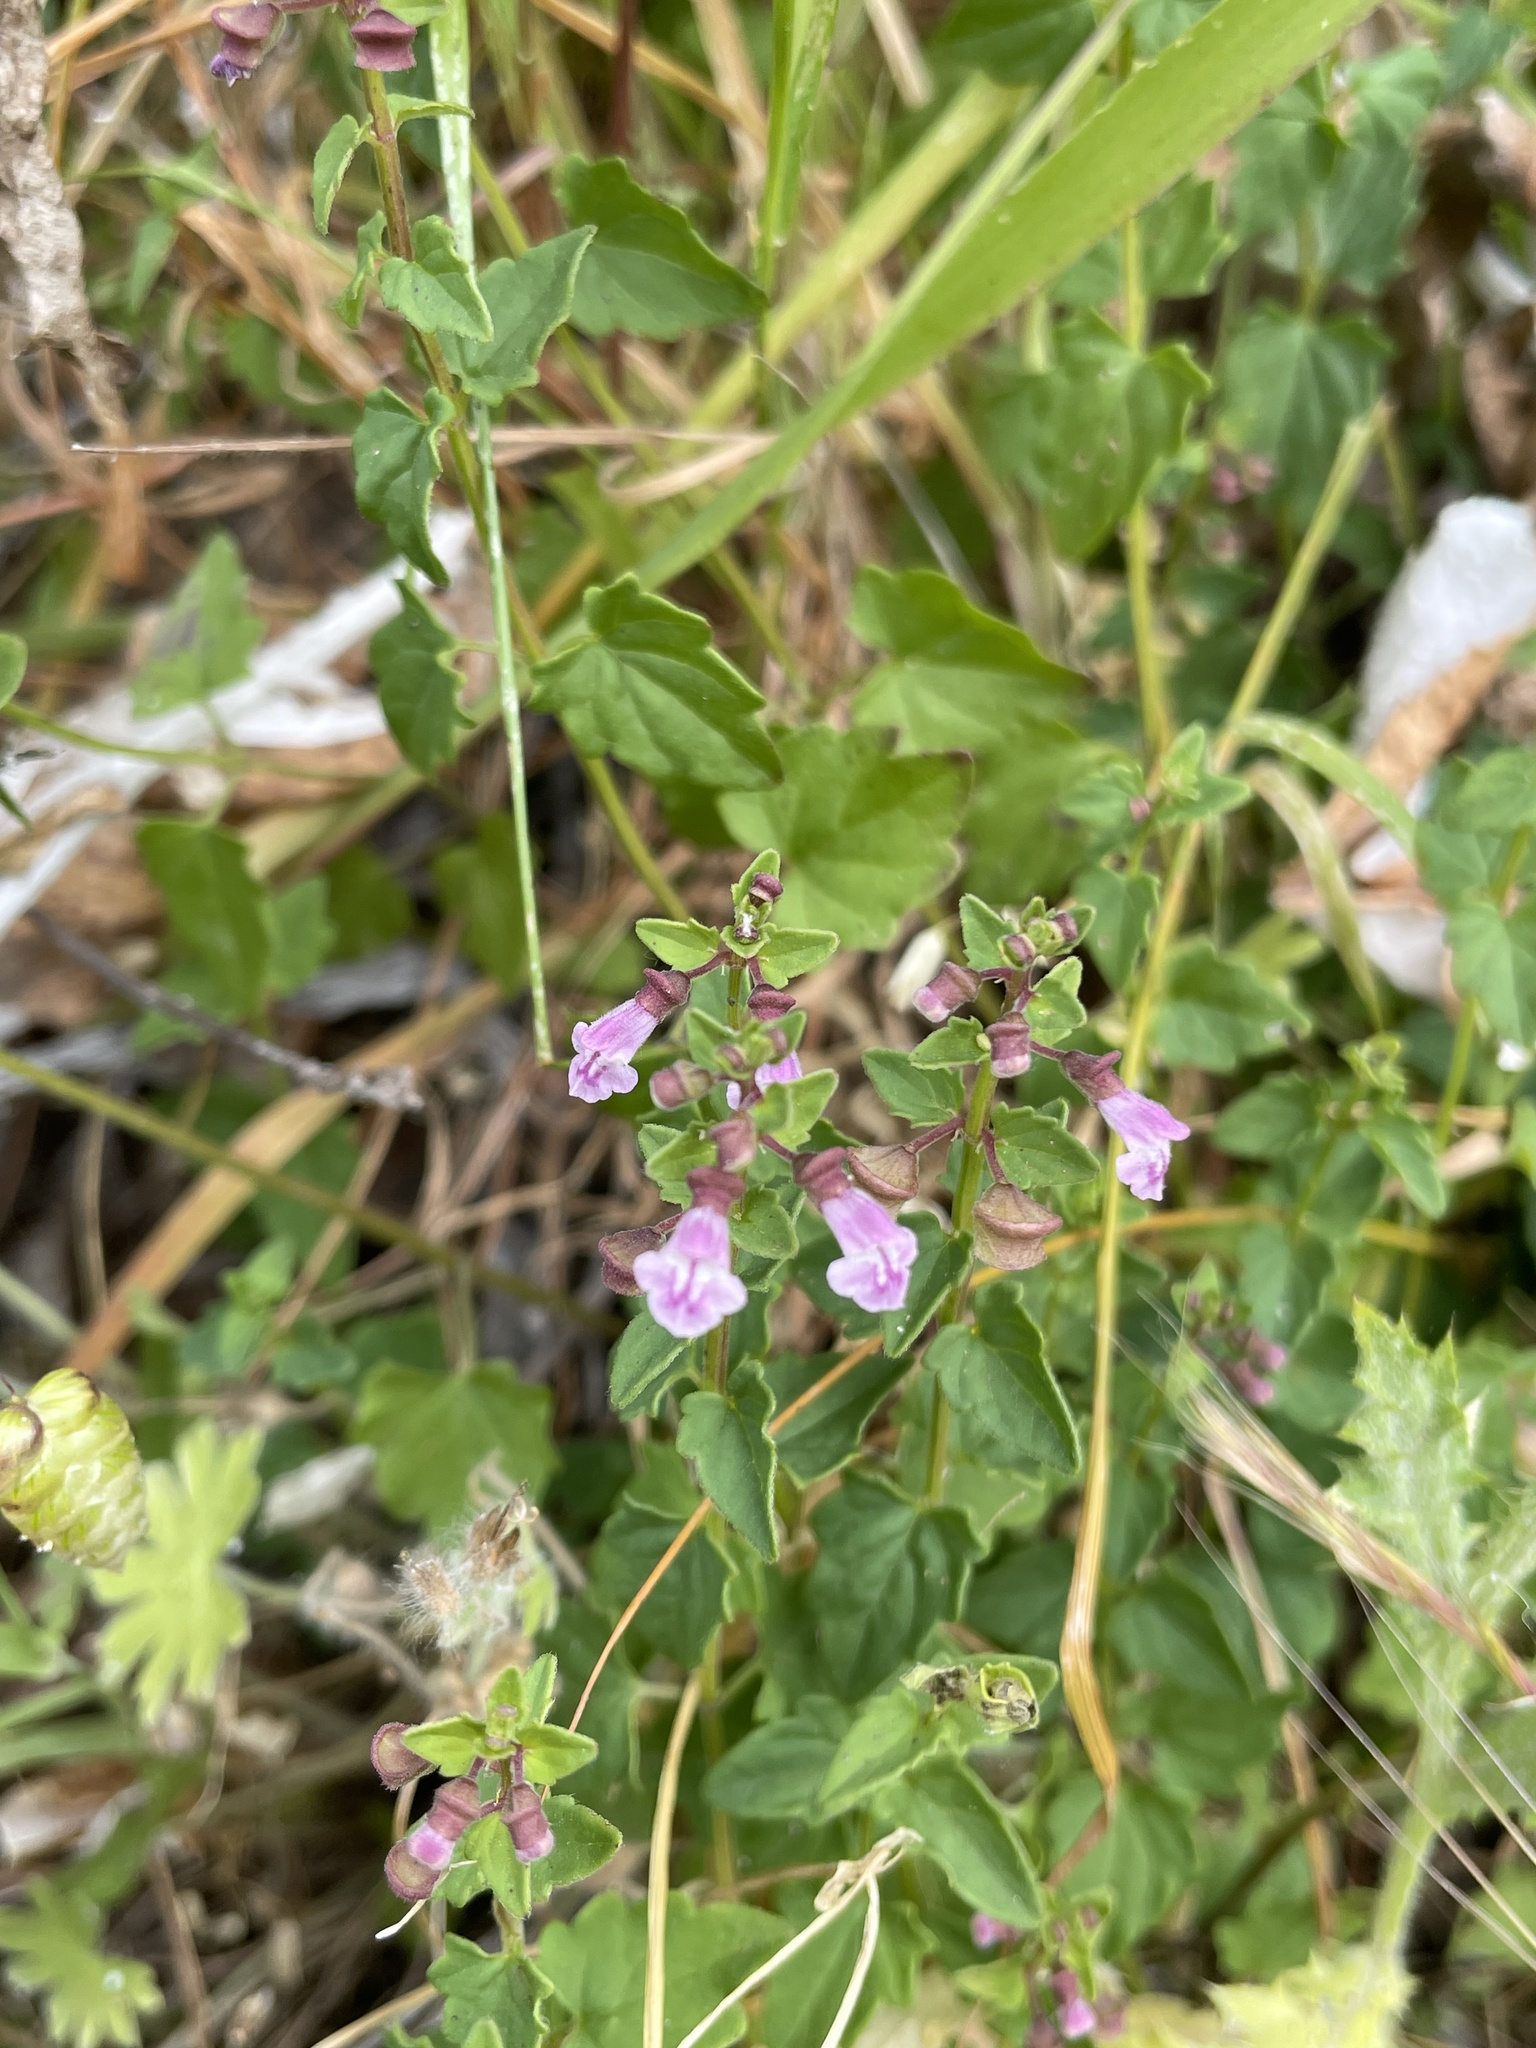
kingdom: Plantae
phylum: Tracheophyta
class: Magnoliopsida
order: Lamiales
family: Lamiaceae
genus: Scutellaria
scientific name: Scutellaria humilis
